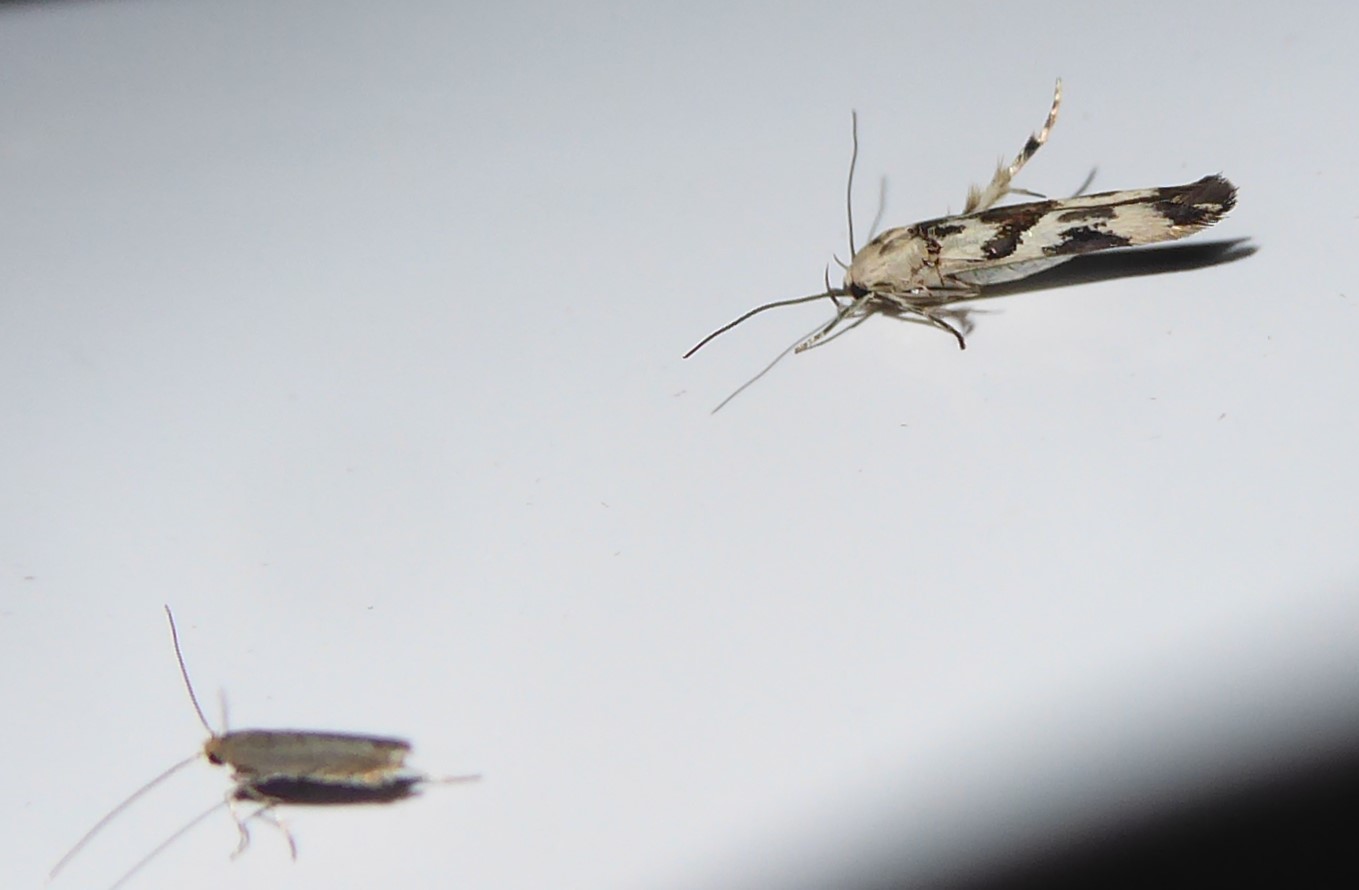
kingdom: Animalia
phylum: Arthropoda
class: Insecta
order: Lepidoptera
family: Stathmopodidae
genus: Stathmopoda
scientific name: Stathmopoda melanochra
